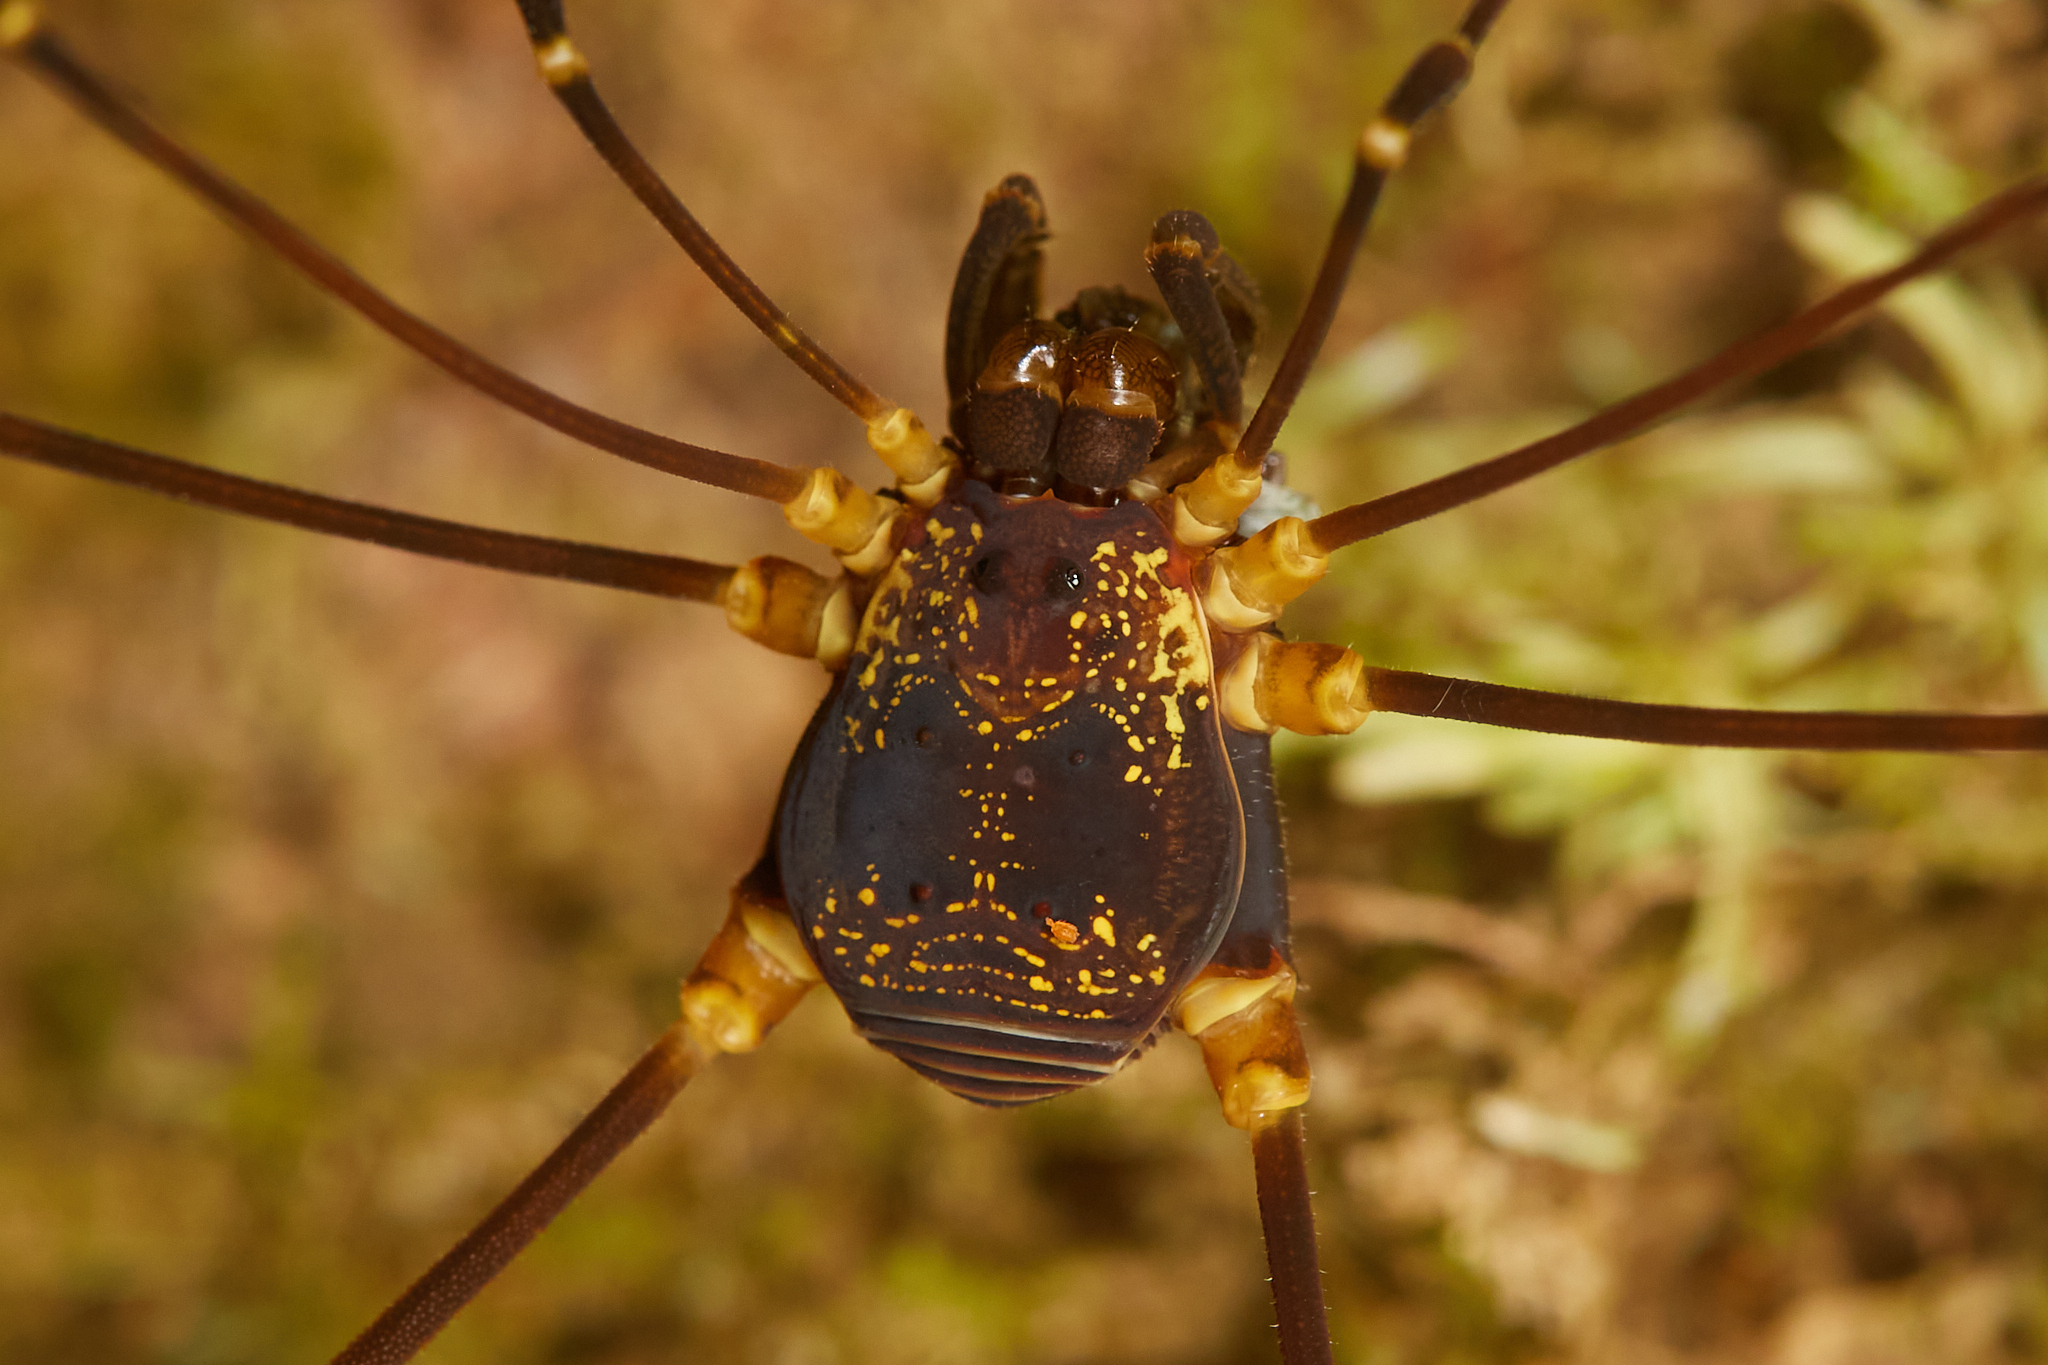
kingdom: Animalia
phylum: Arthropoda
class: Arachnida
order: Opiliones
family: Cosmetidae
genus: Eupoecilaema
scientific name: Eupoecilaema magnum
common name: Harvestmen
